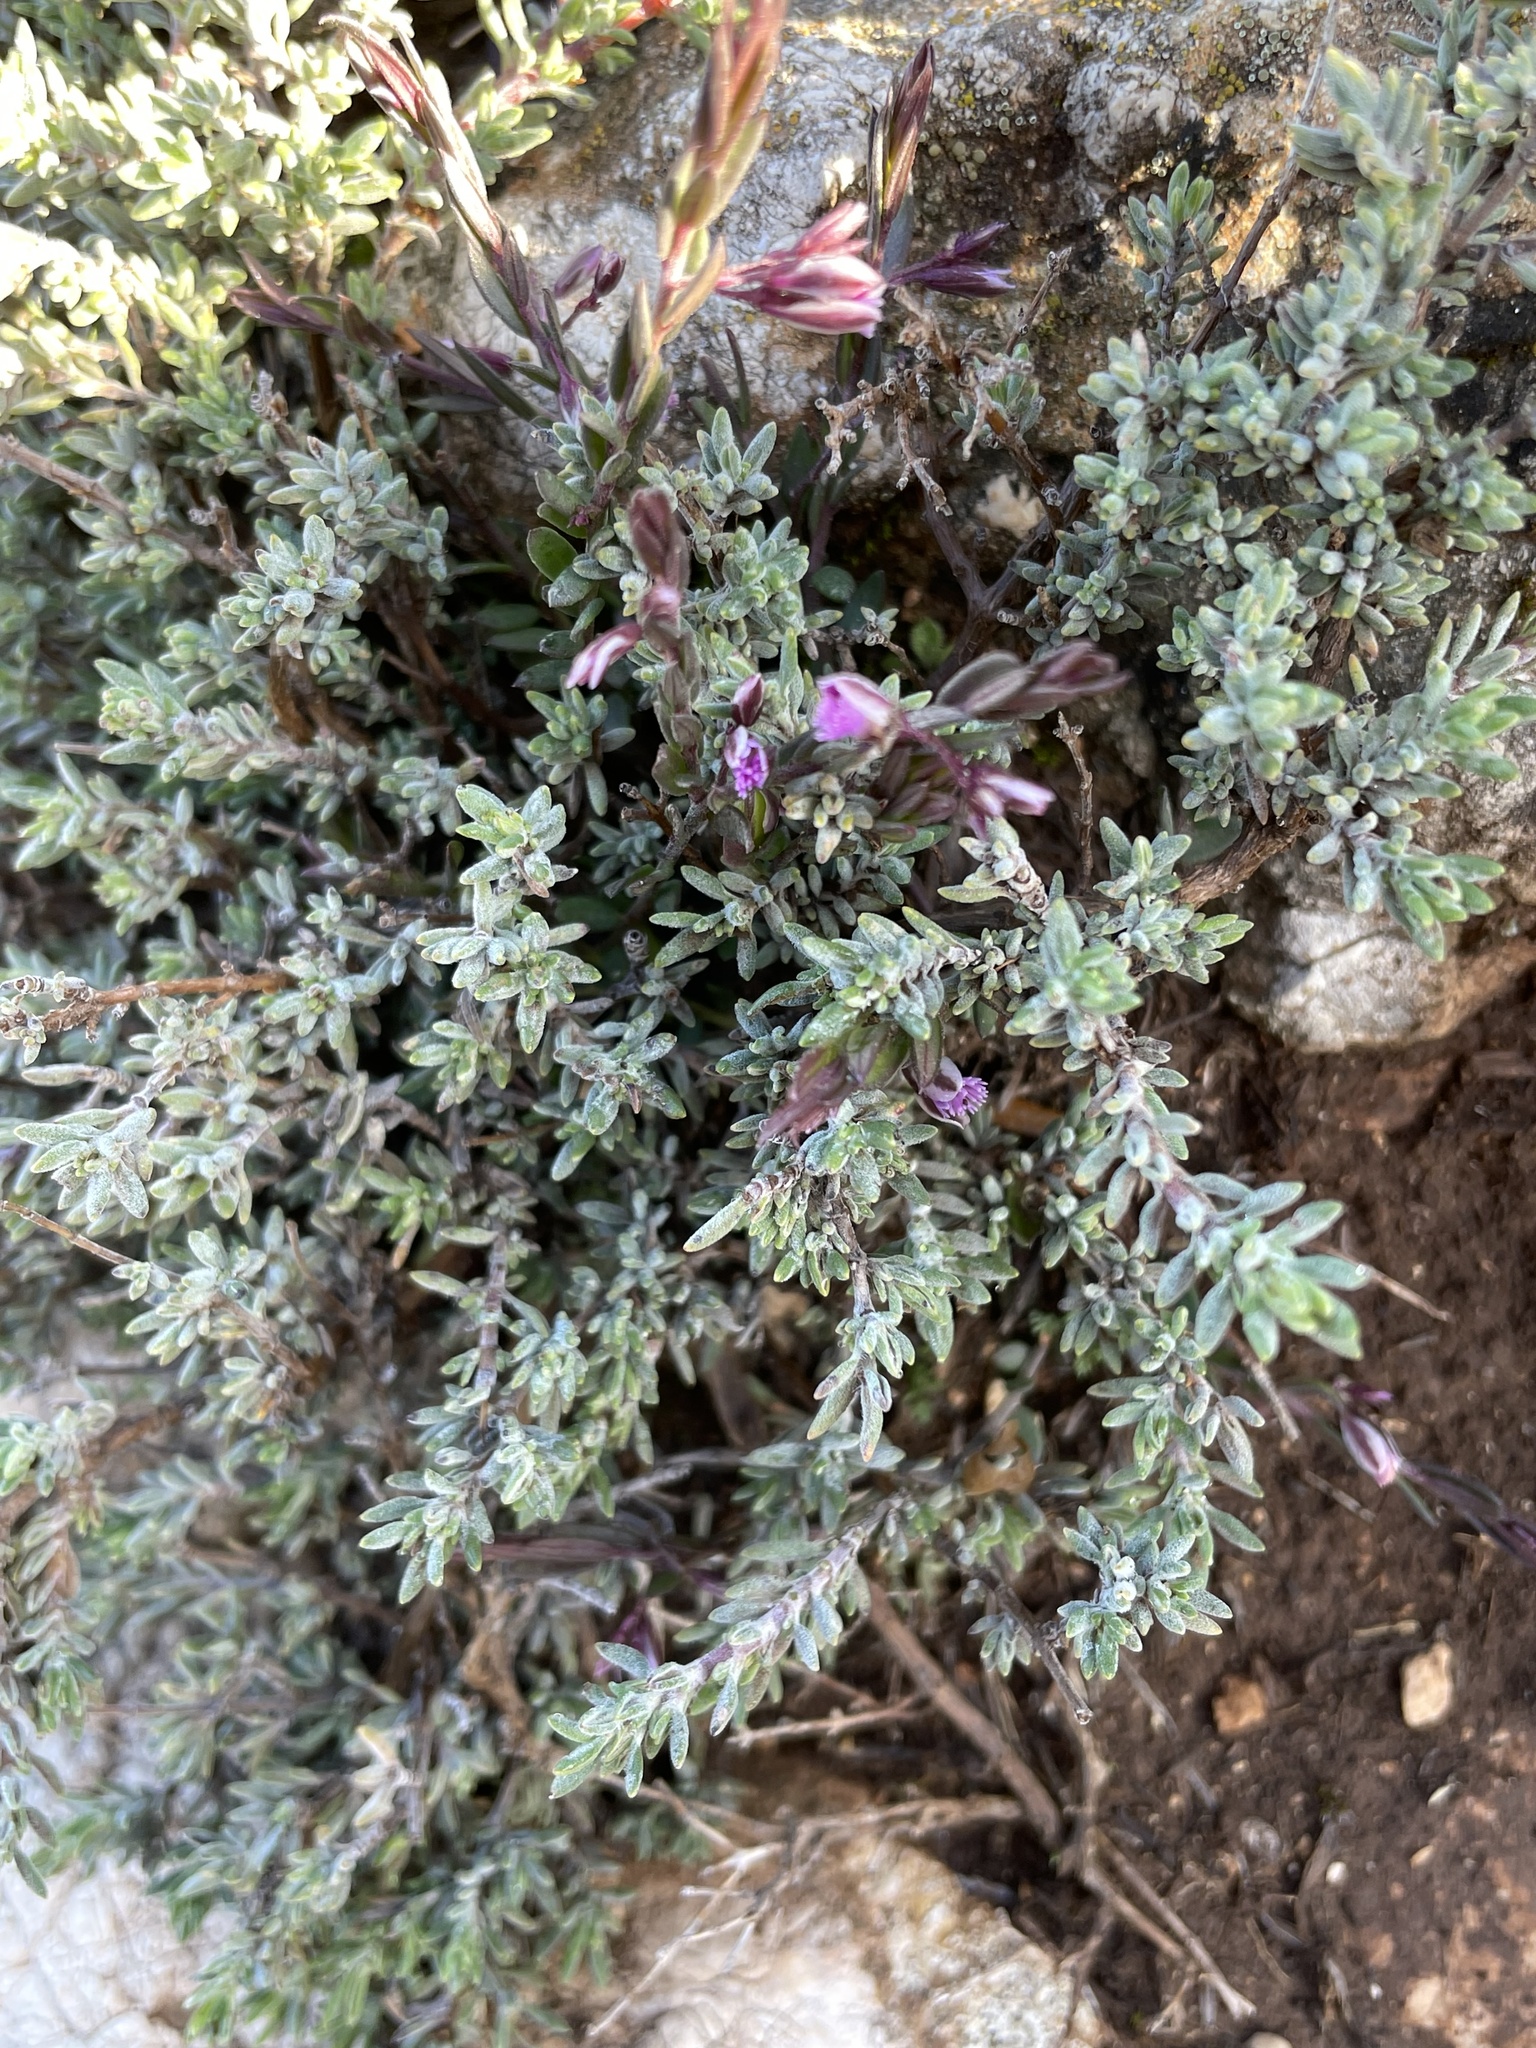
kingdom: Plantae
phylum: Tracheophyta
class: Magnoliopsida
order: Fabales
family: Polygalaceae
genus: Polygala
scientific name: Polygala rupestris
